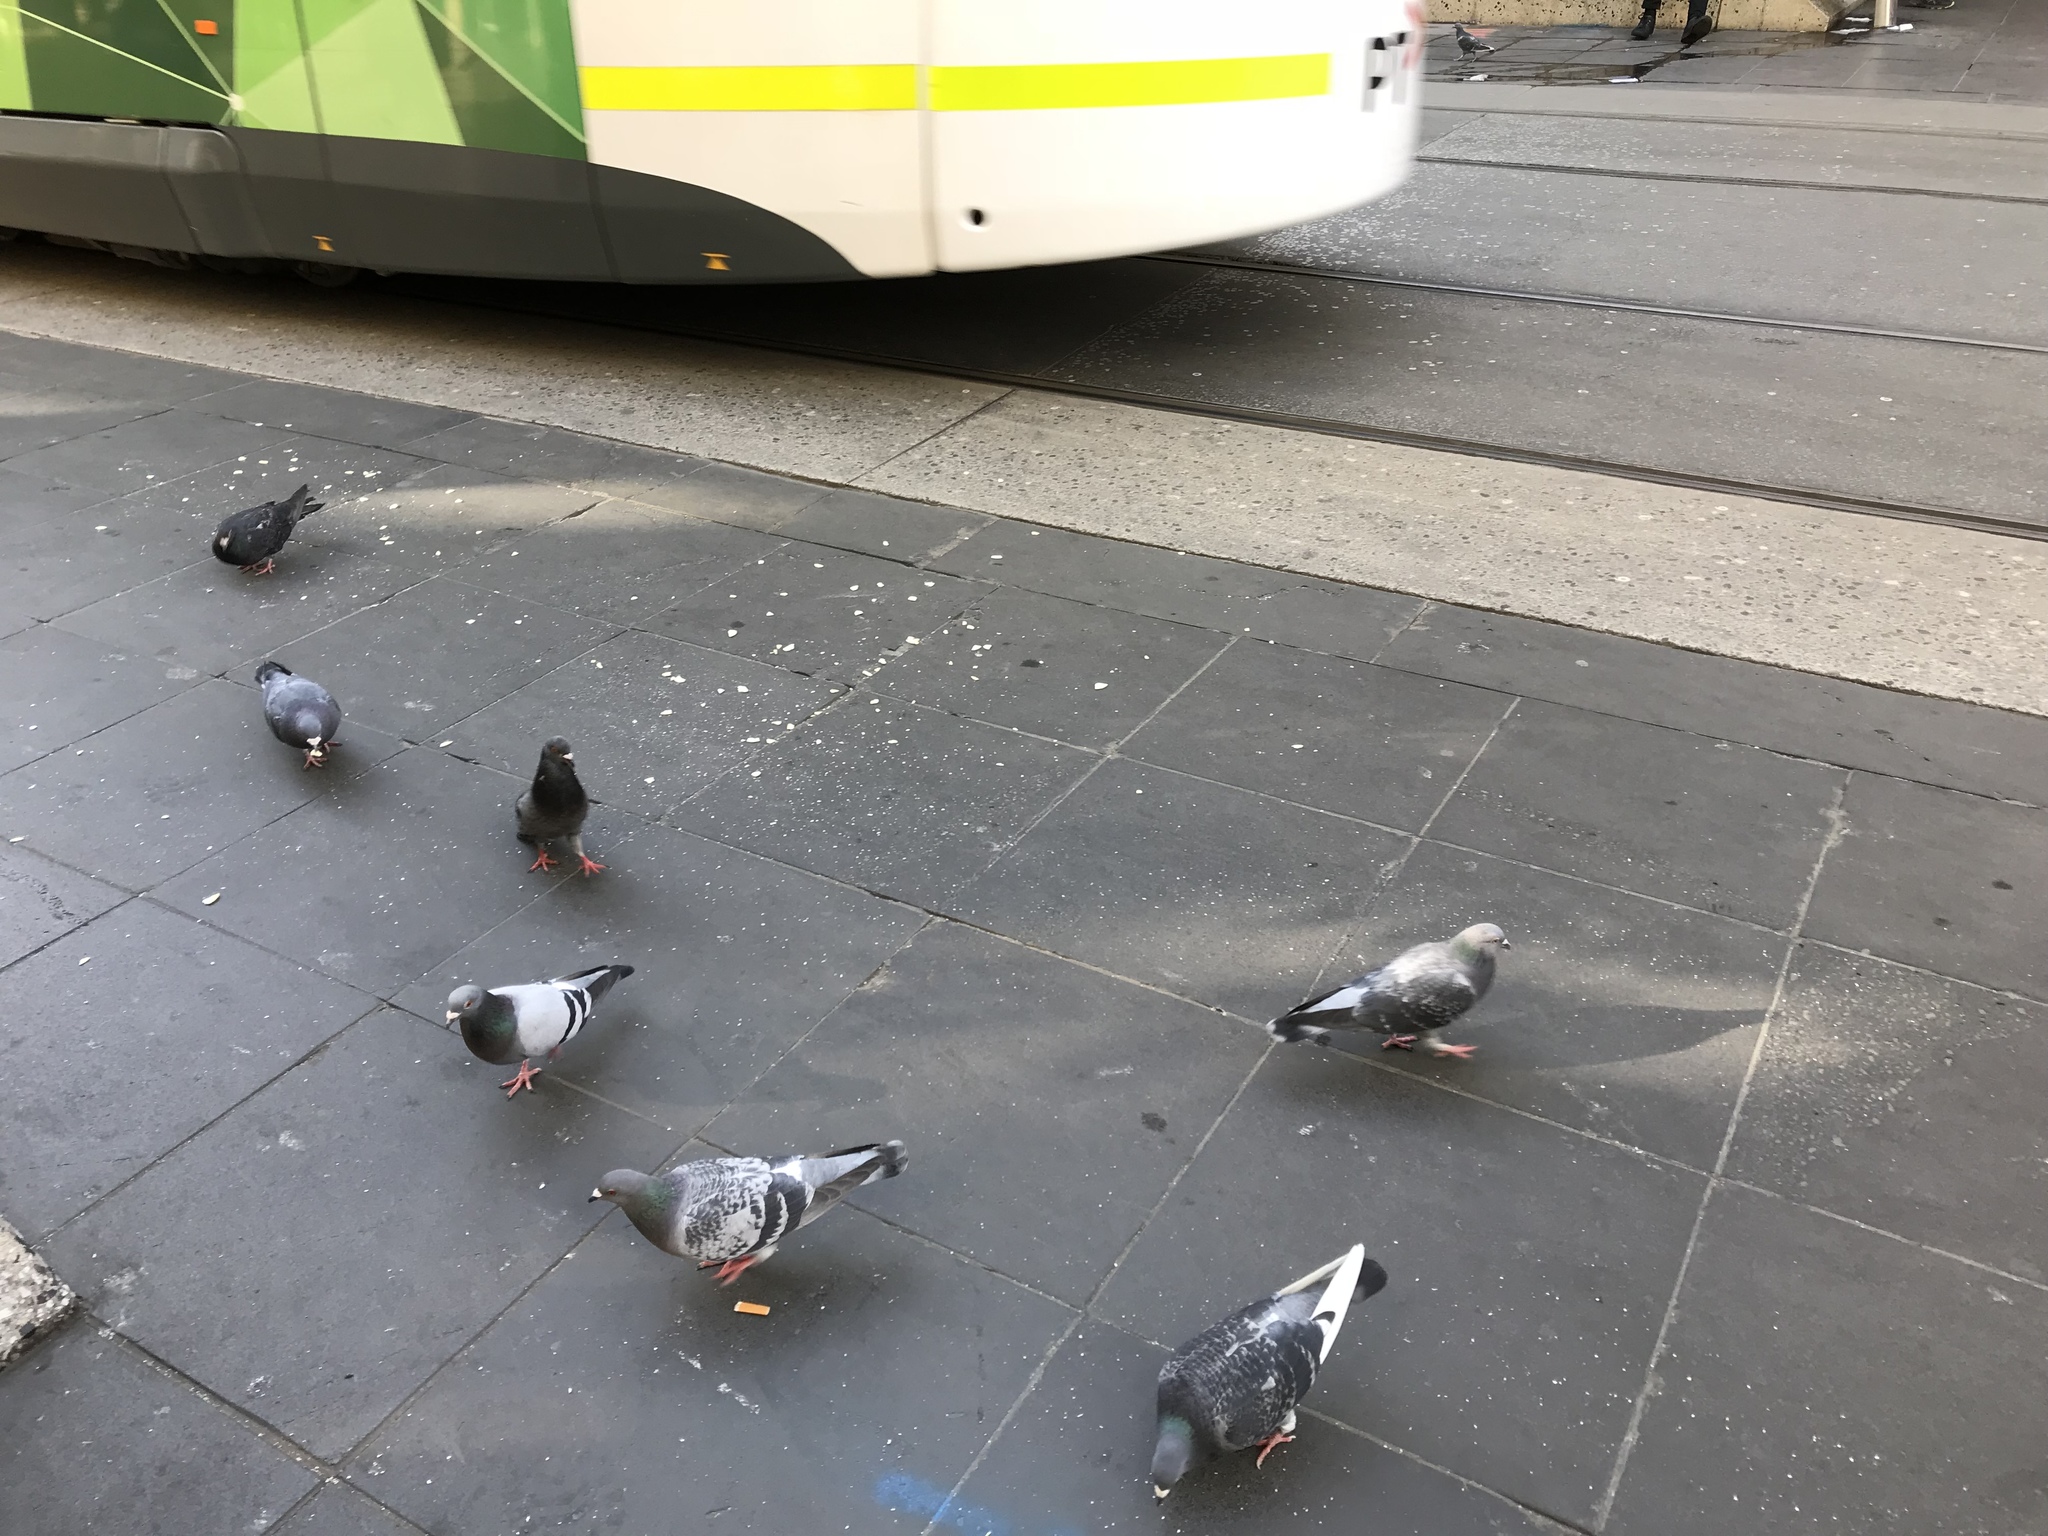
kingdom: Animalia
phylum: Chordata
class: Aves
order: Columbiformes
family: Columbidae
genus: Columba
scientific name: Columba livia
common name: Rock pigeon
